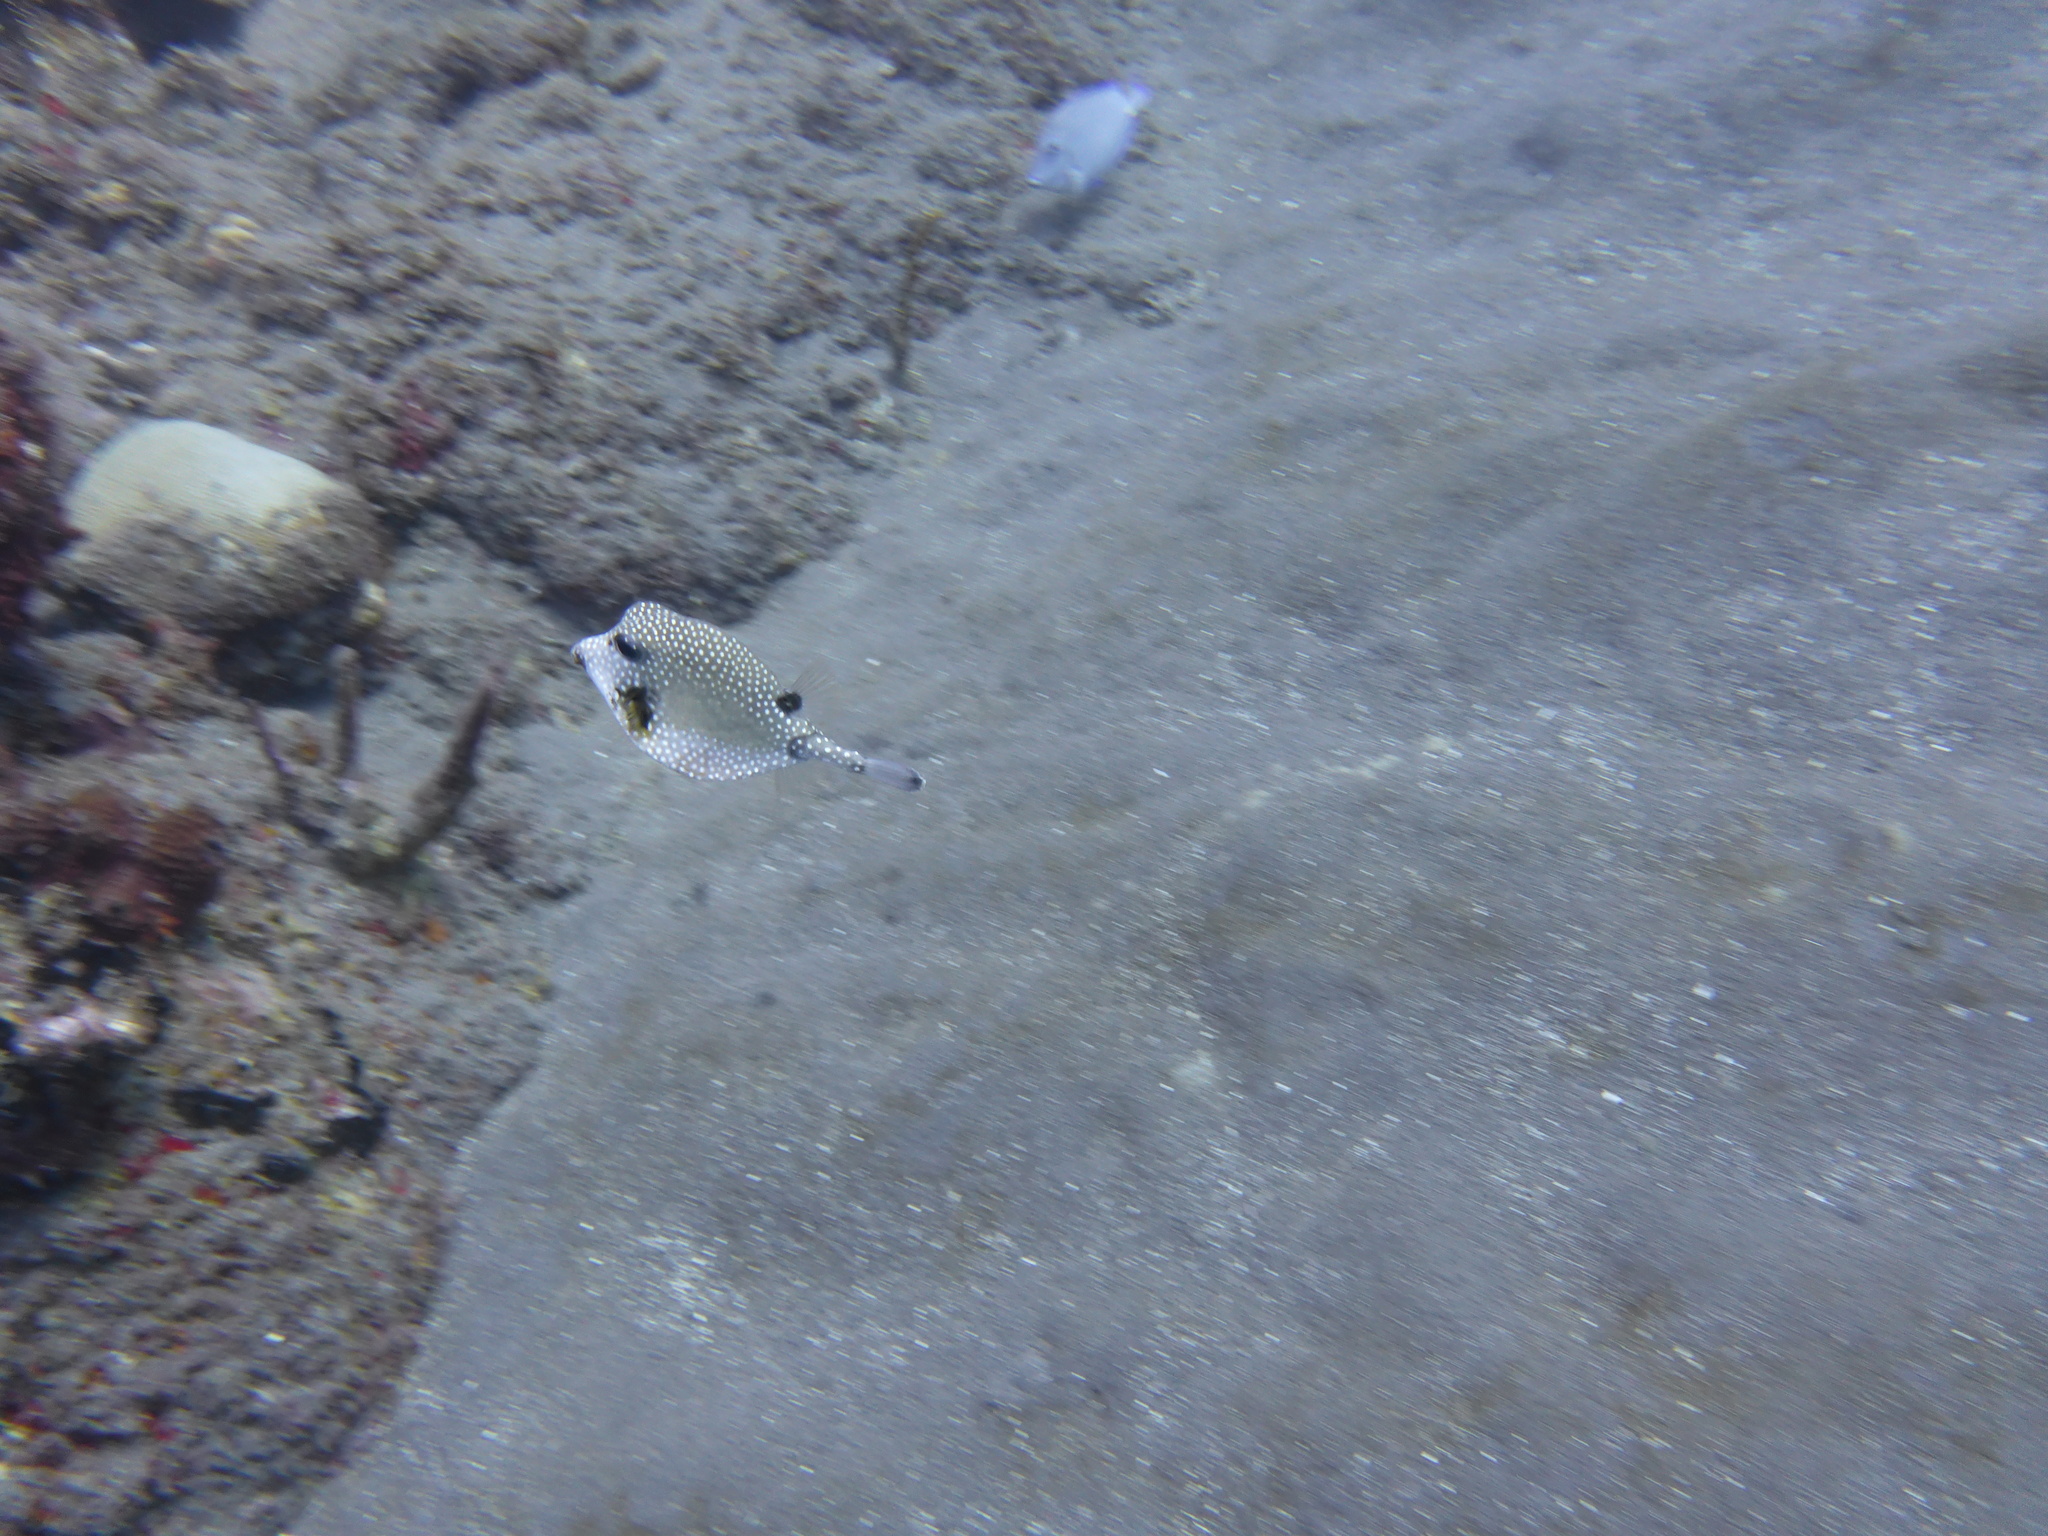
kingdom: Animalia
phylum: Chordata
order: Tetraodontiformes
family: Ostraciidae
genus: Lactophrys
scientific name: Lactophrys triqueter
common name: Smooth trunkfish
